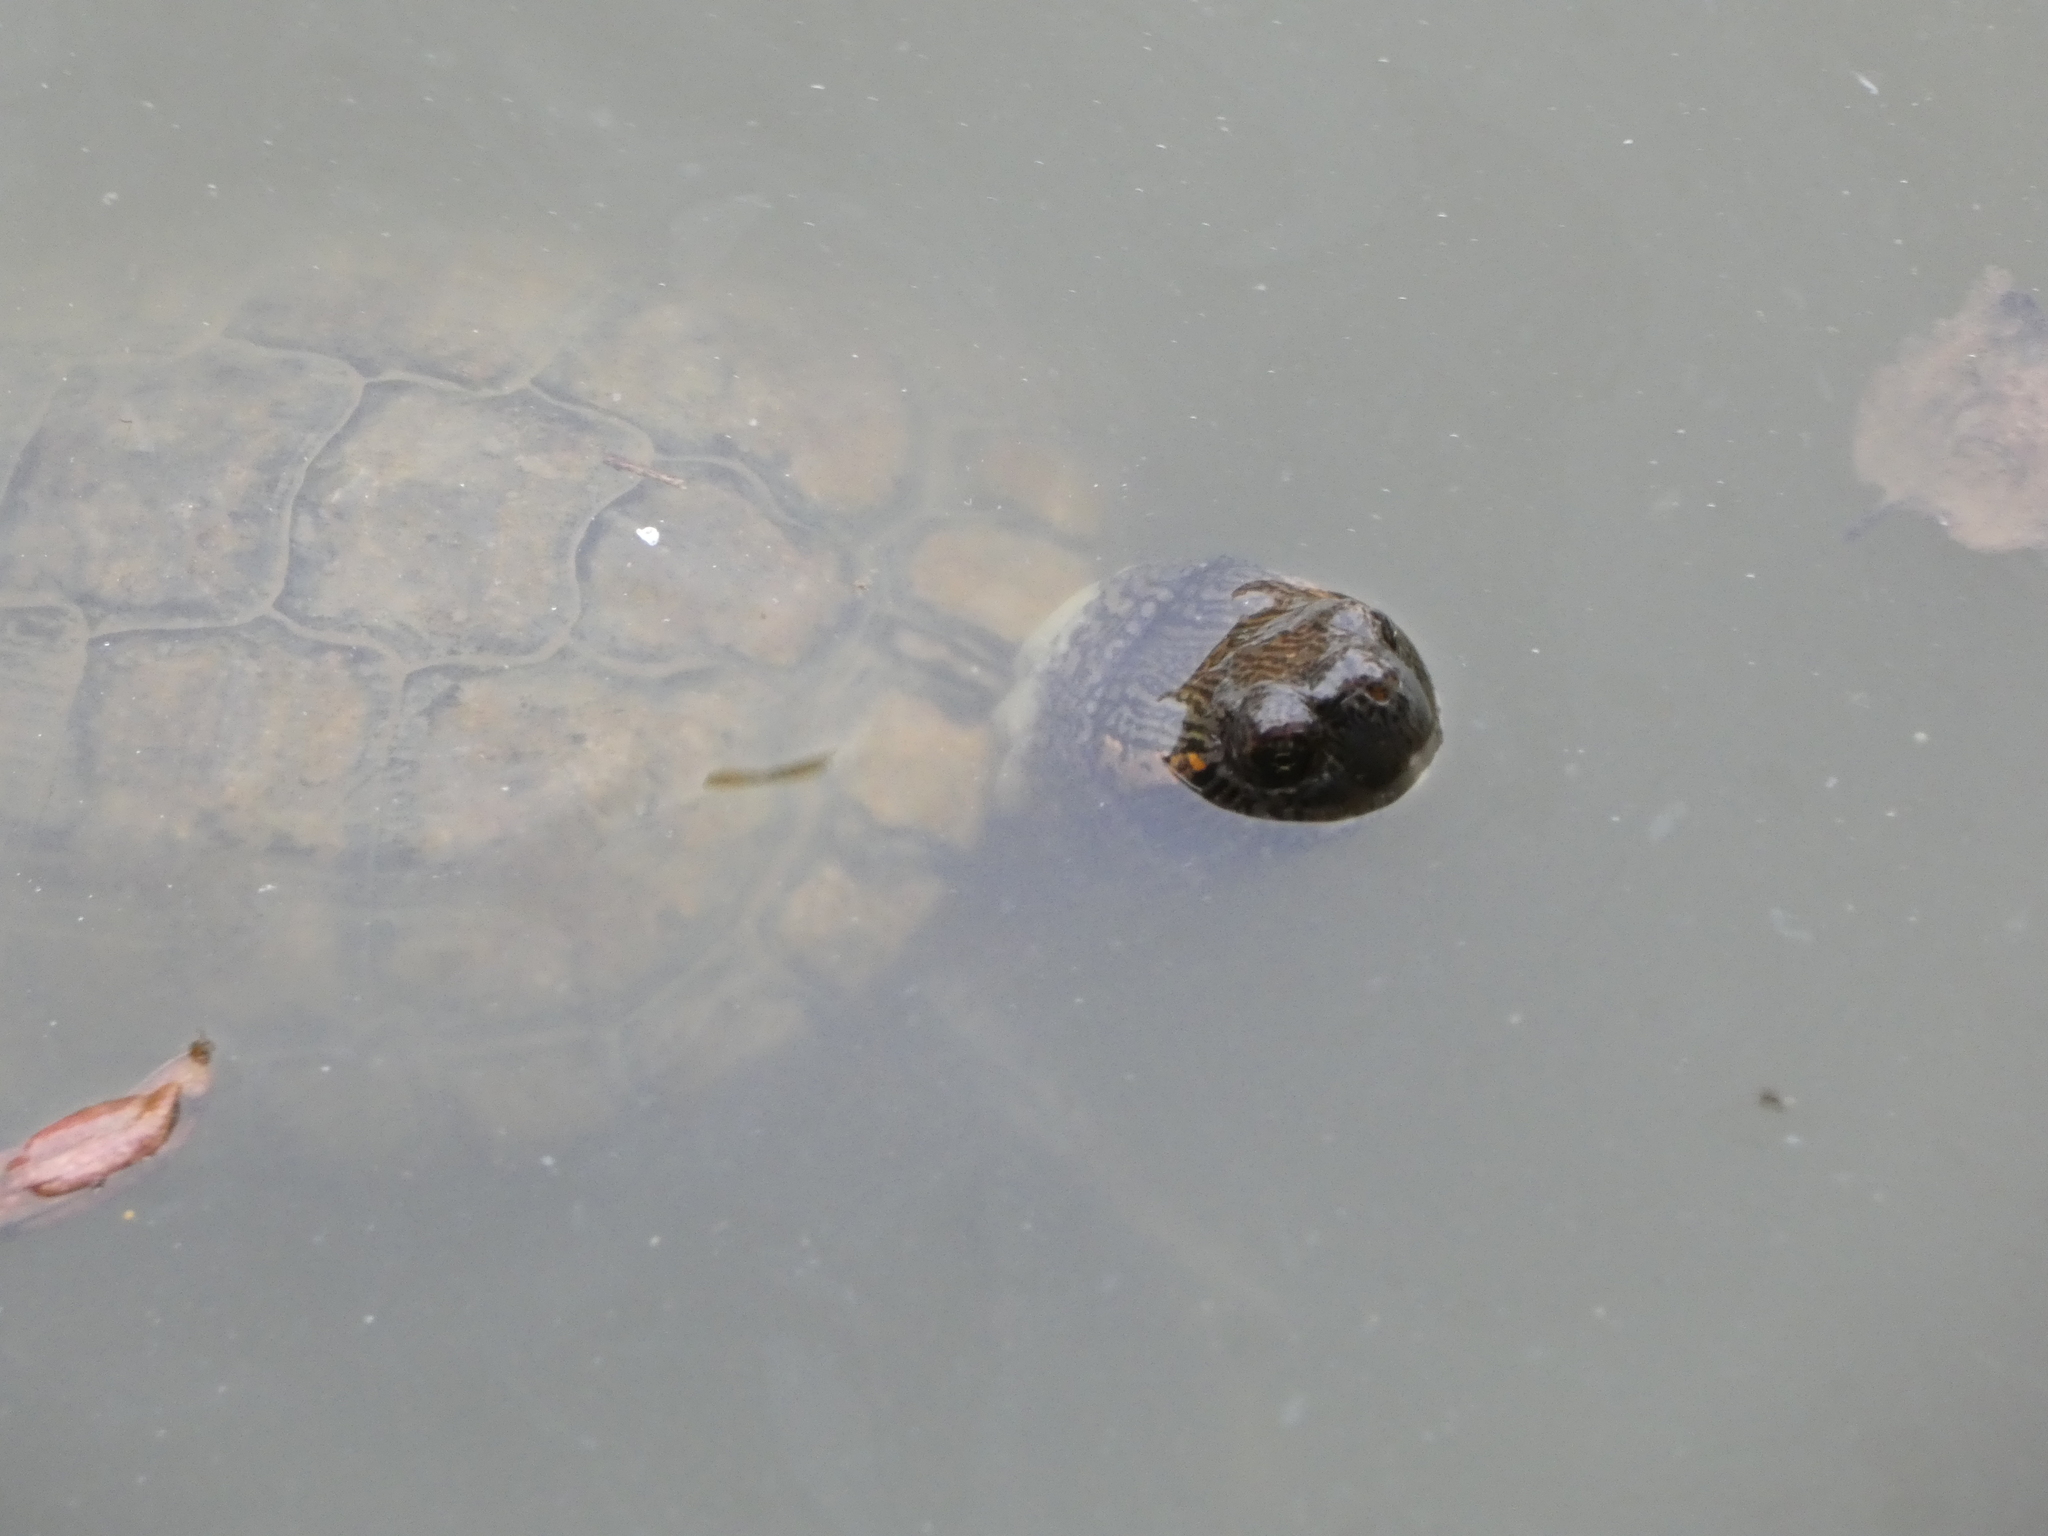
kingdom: Animalia
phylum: Chordata
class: Testudines
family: Emydidae
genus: Trachemys
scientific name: Trachemys scripta
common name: Slider
